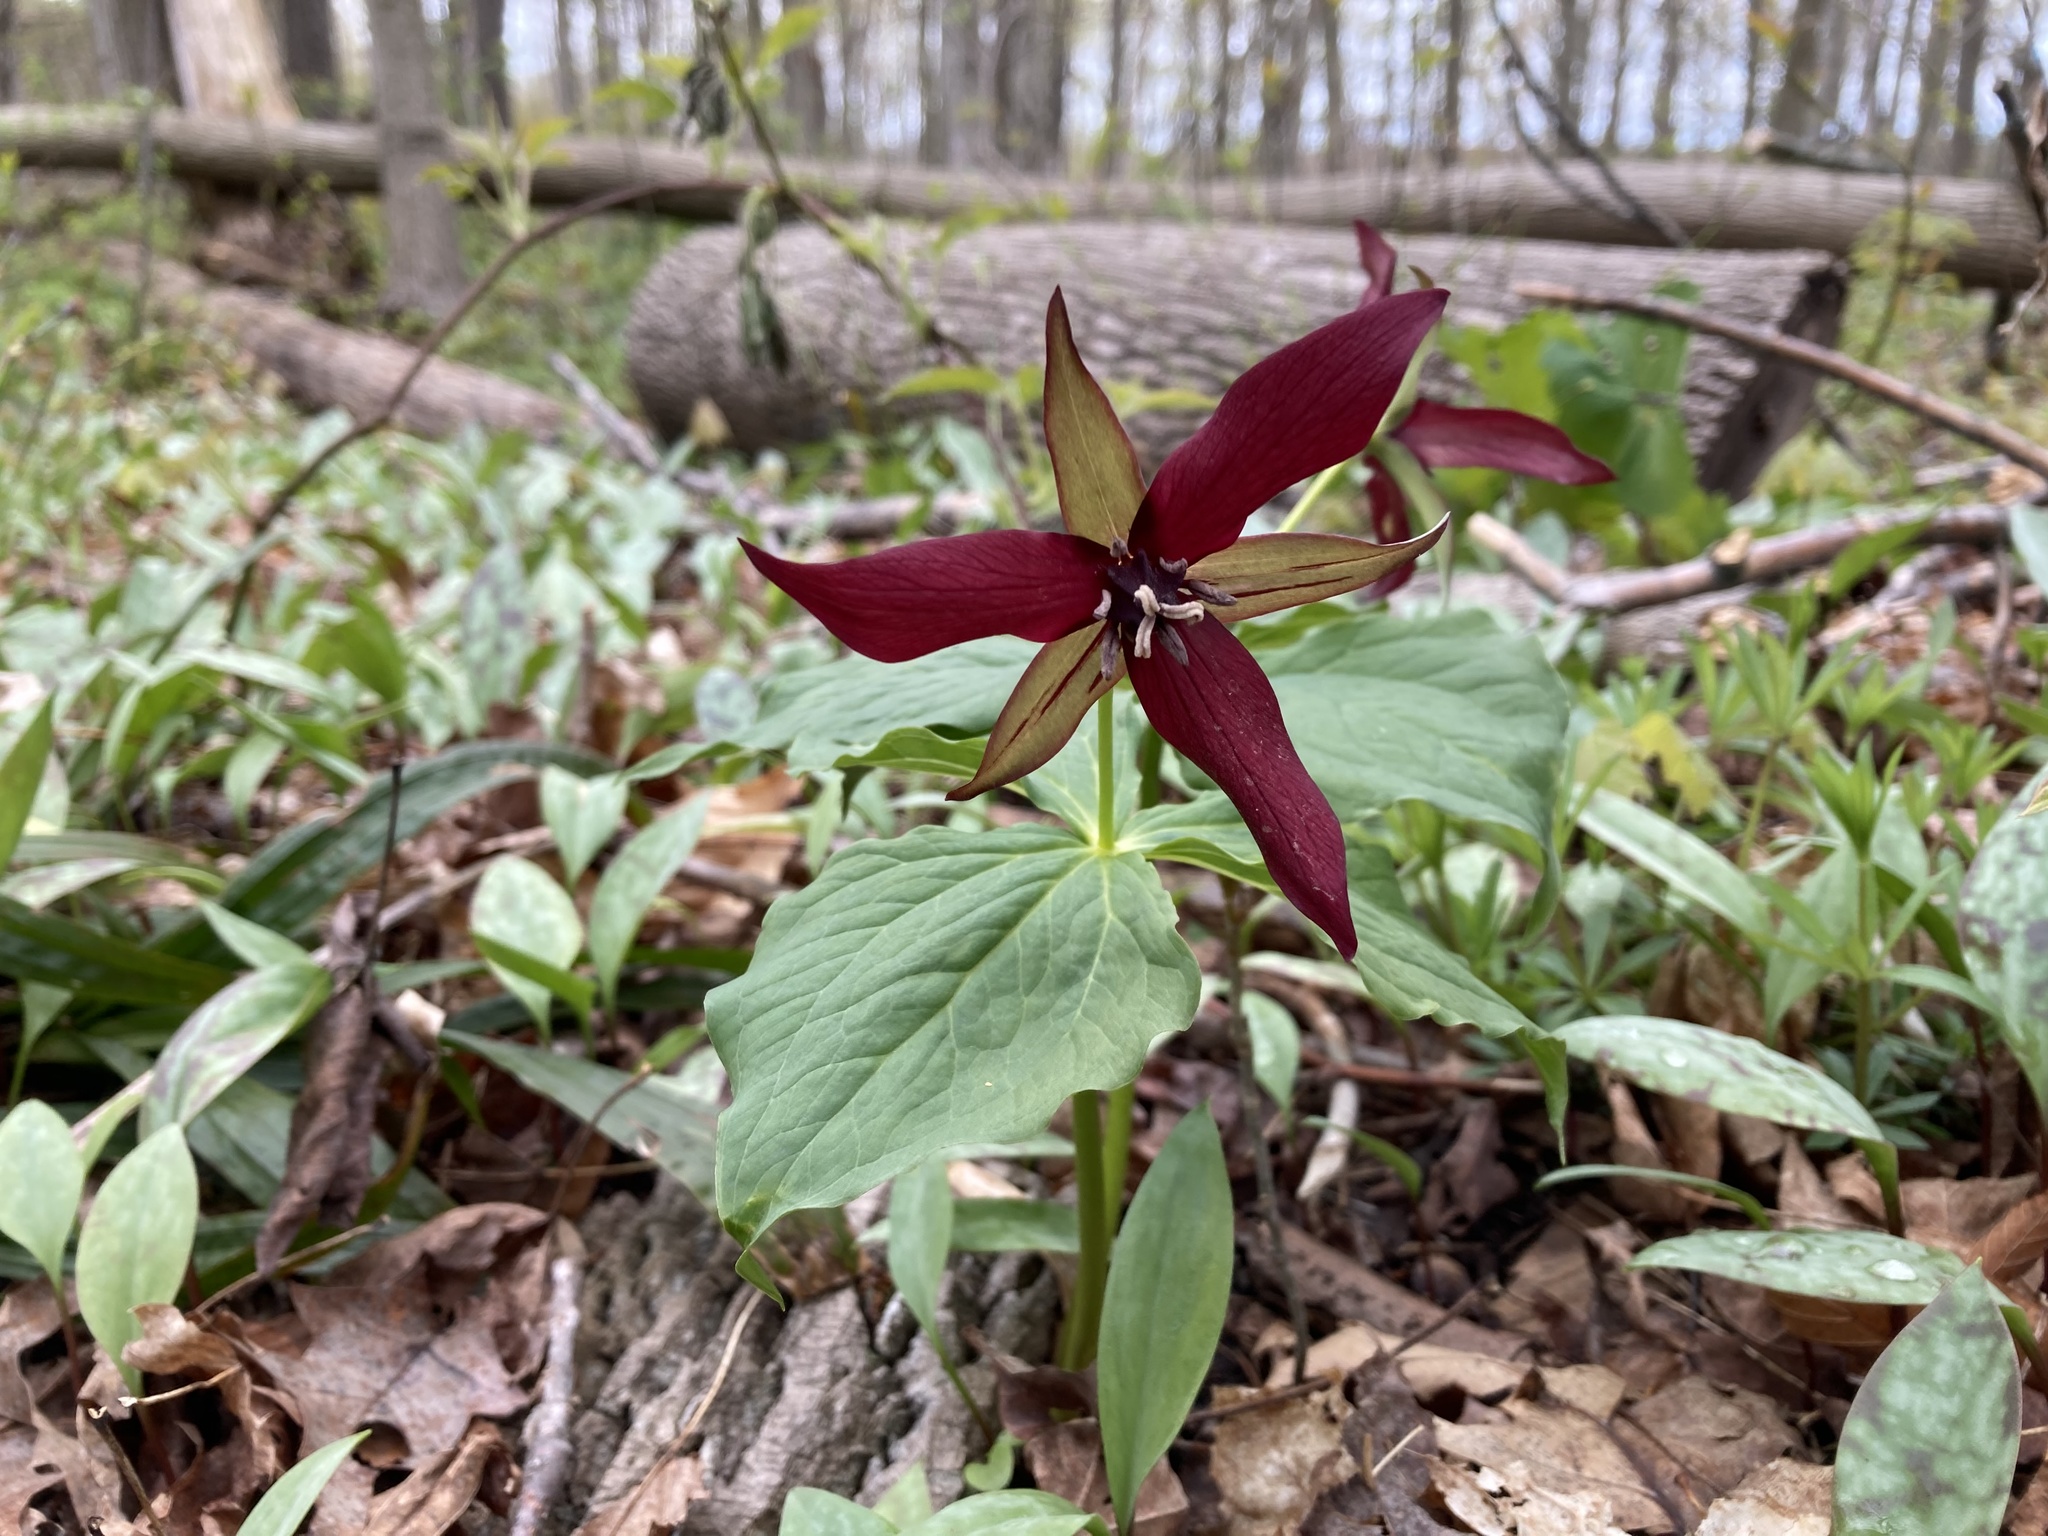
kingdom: Plantae
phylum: Tracheophyta
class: Liliopsida
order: Liliales
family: Melanthiaceae
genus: Trillium
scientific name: Trillium erectum
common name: Purple trillium
